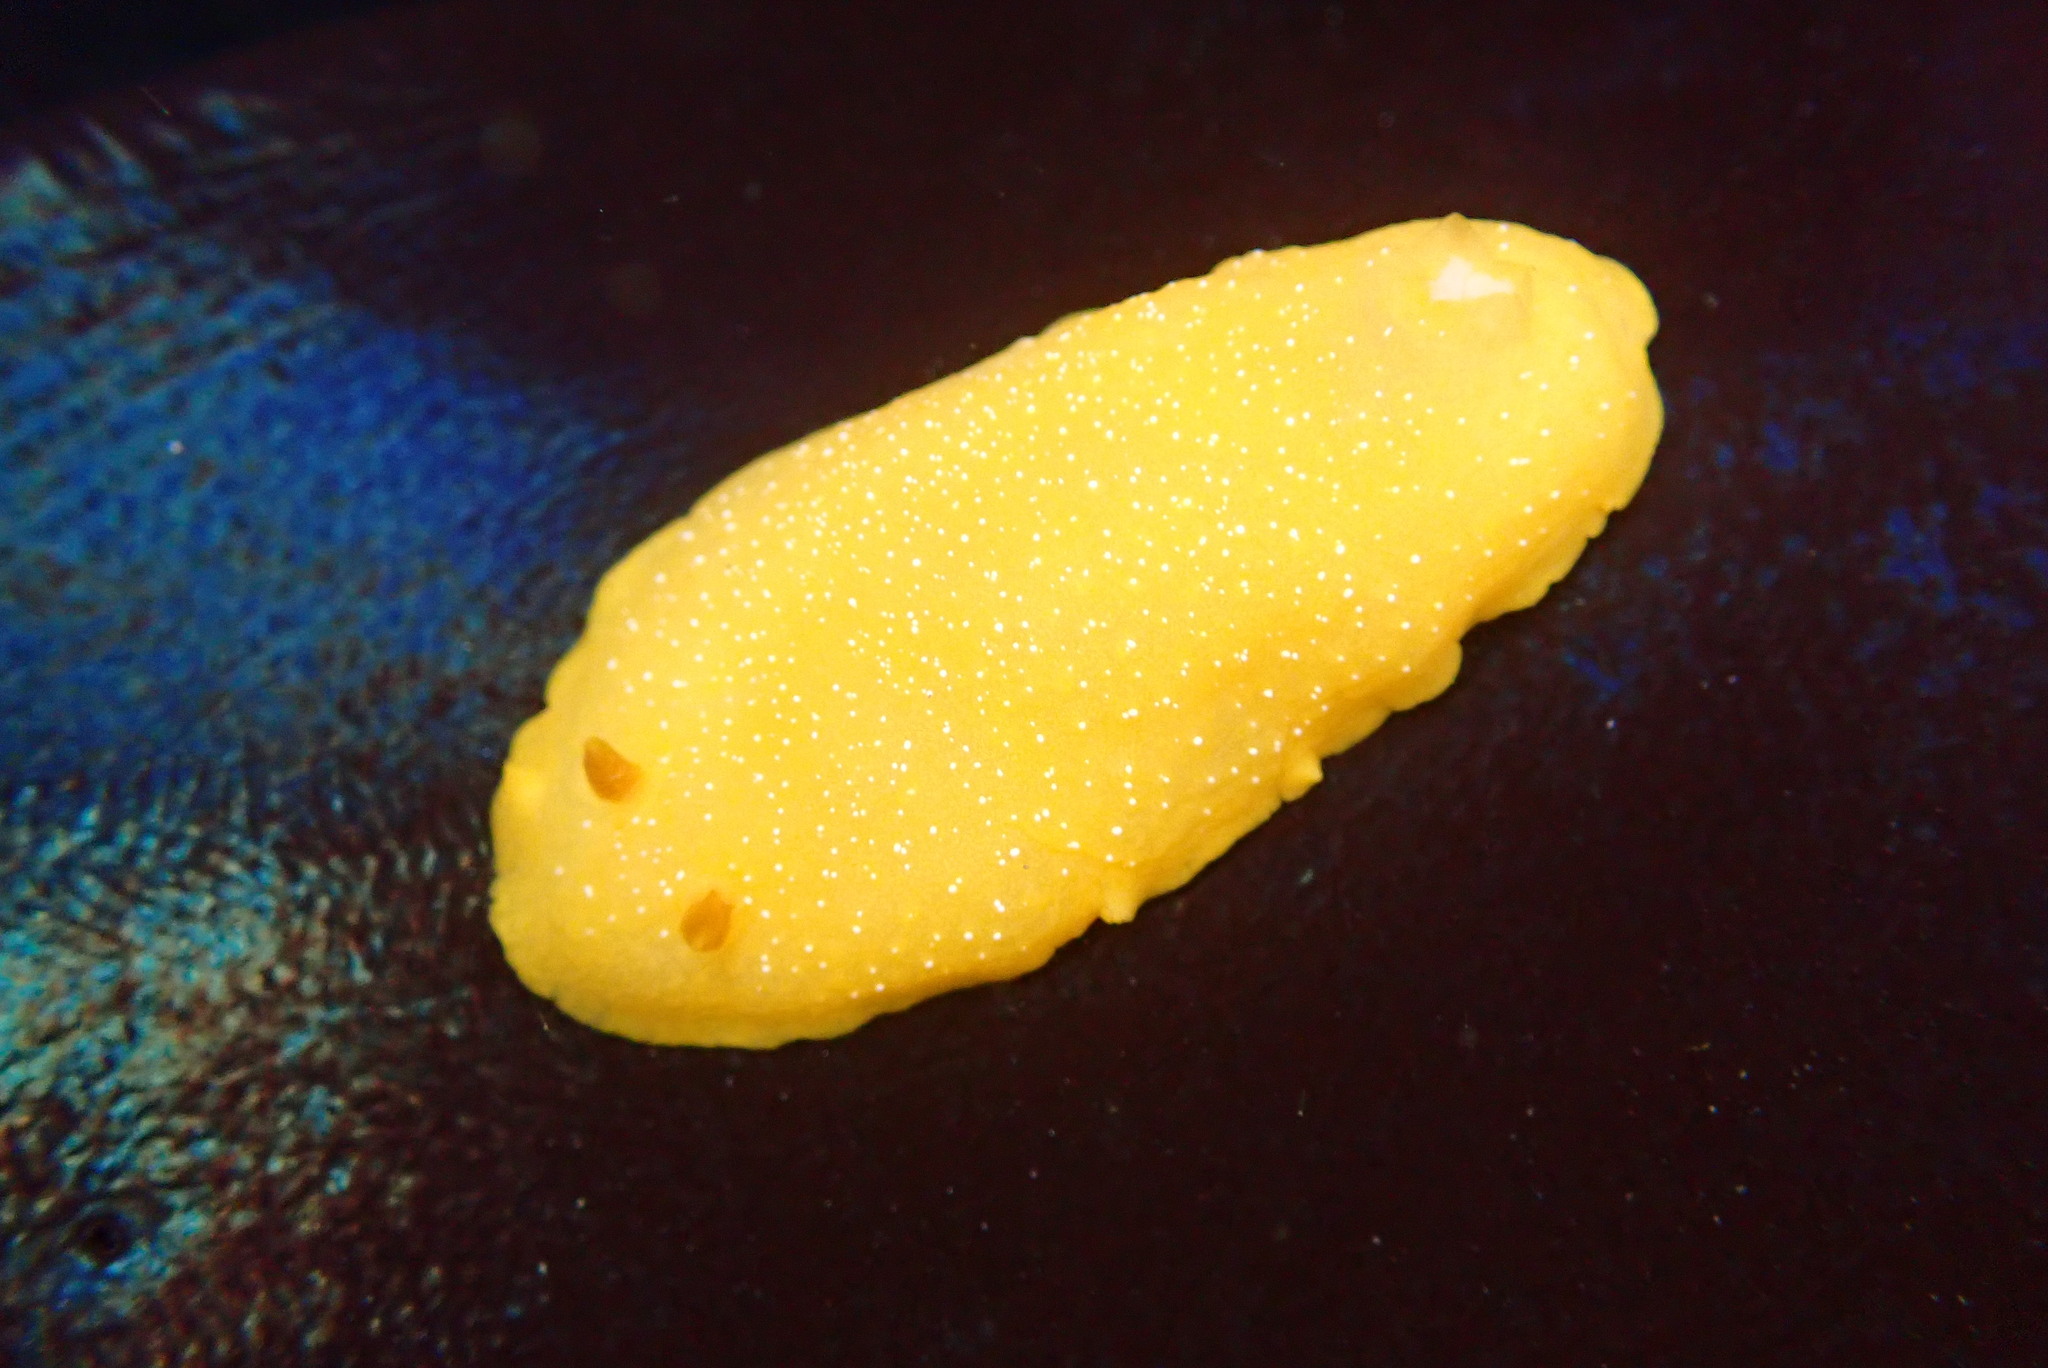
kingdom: Animalia
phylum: Mollusca
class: Gastropoda
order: Nudibranchia
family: Dendrodorididae
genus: Doriopsilla
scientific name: Doriopsilla fulva
